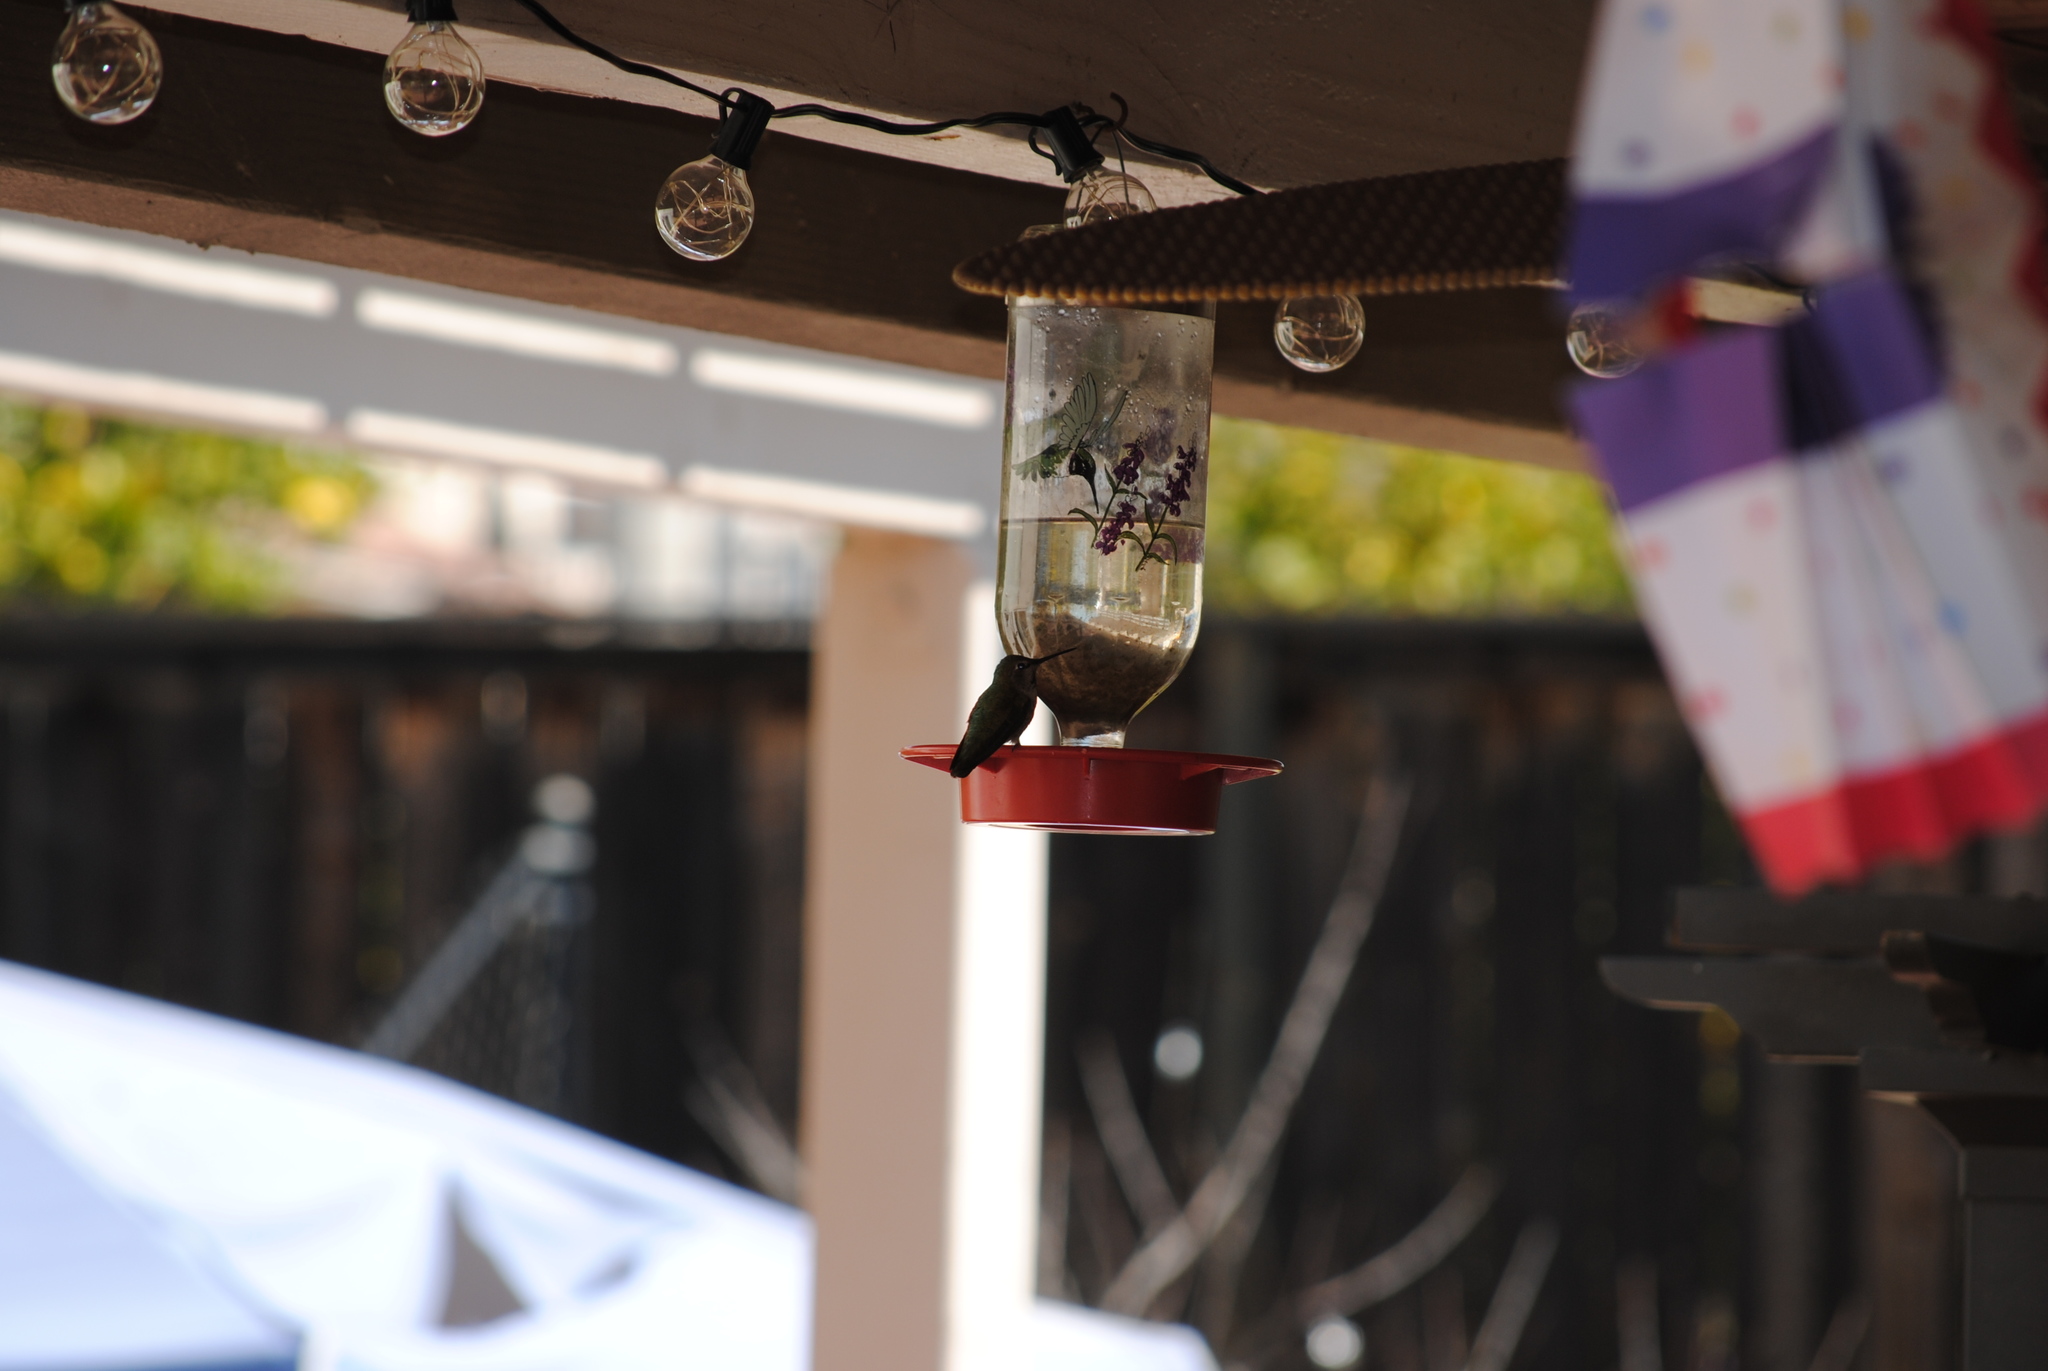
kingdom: Animalia
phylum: Chordata
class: Aves
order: Apodiformes
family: Trochilidae
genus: Calypte
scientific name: Calypte anna
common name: Anna's hummingbird
